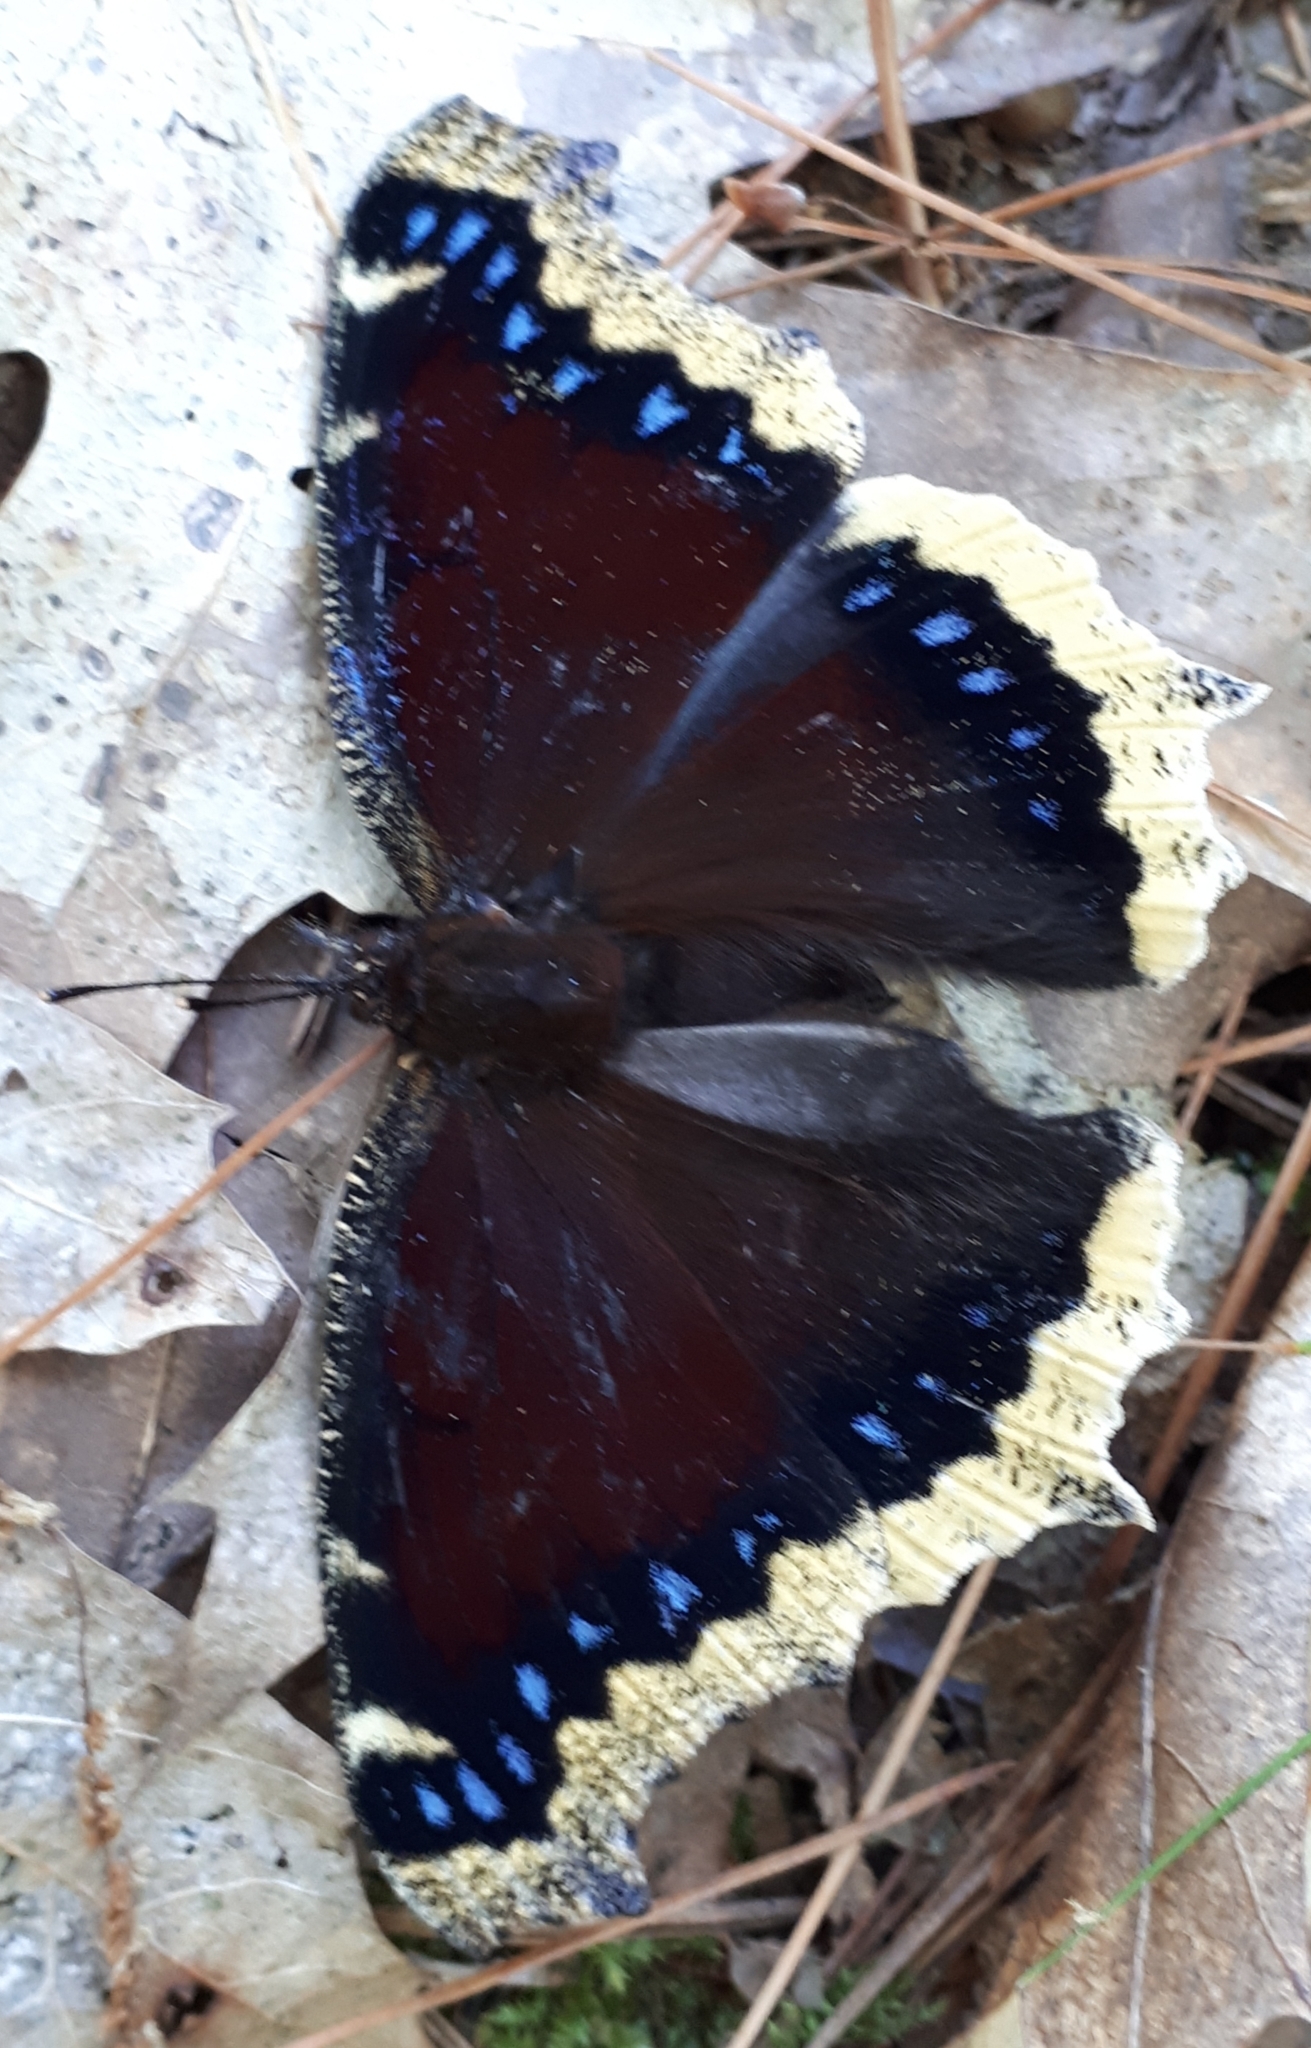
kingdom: Animalia
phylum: Arthropoda
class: Insecta
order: Lepidoptera
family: Nymphalidae
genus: Nymphalis
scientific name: Nymphalis antiopa
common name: Camberwell beauty
